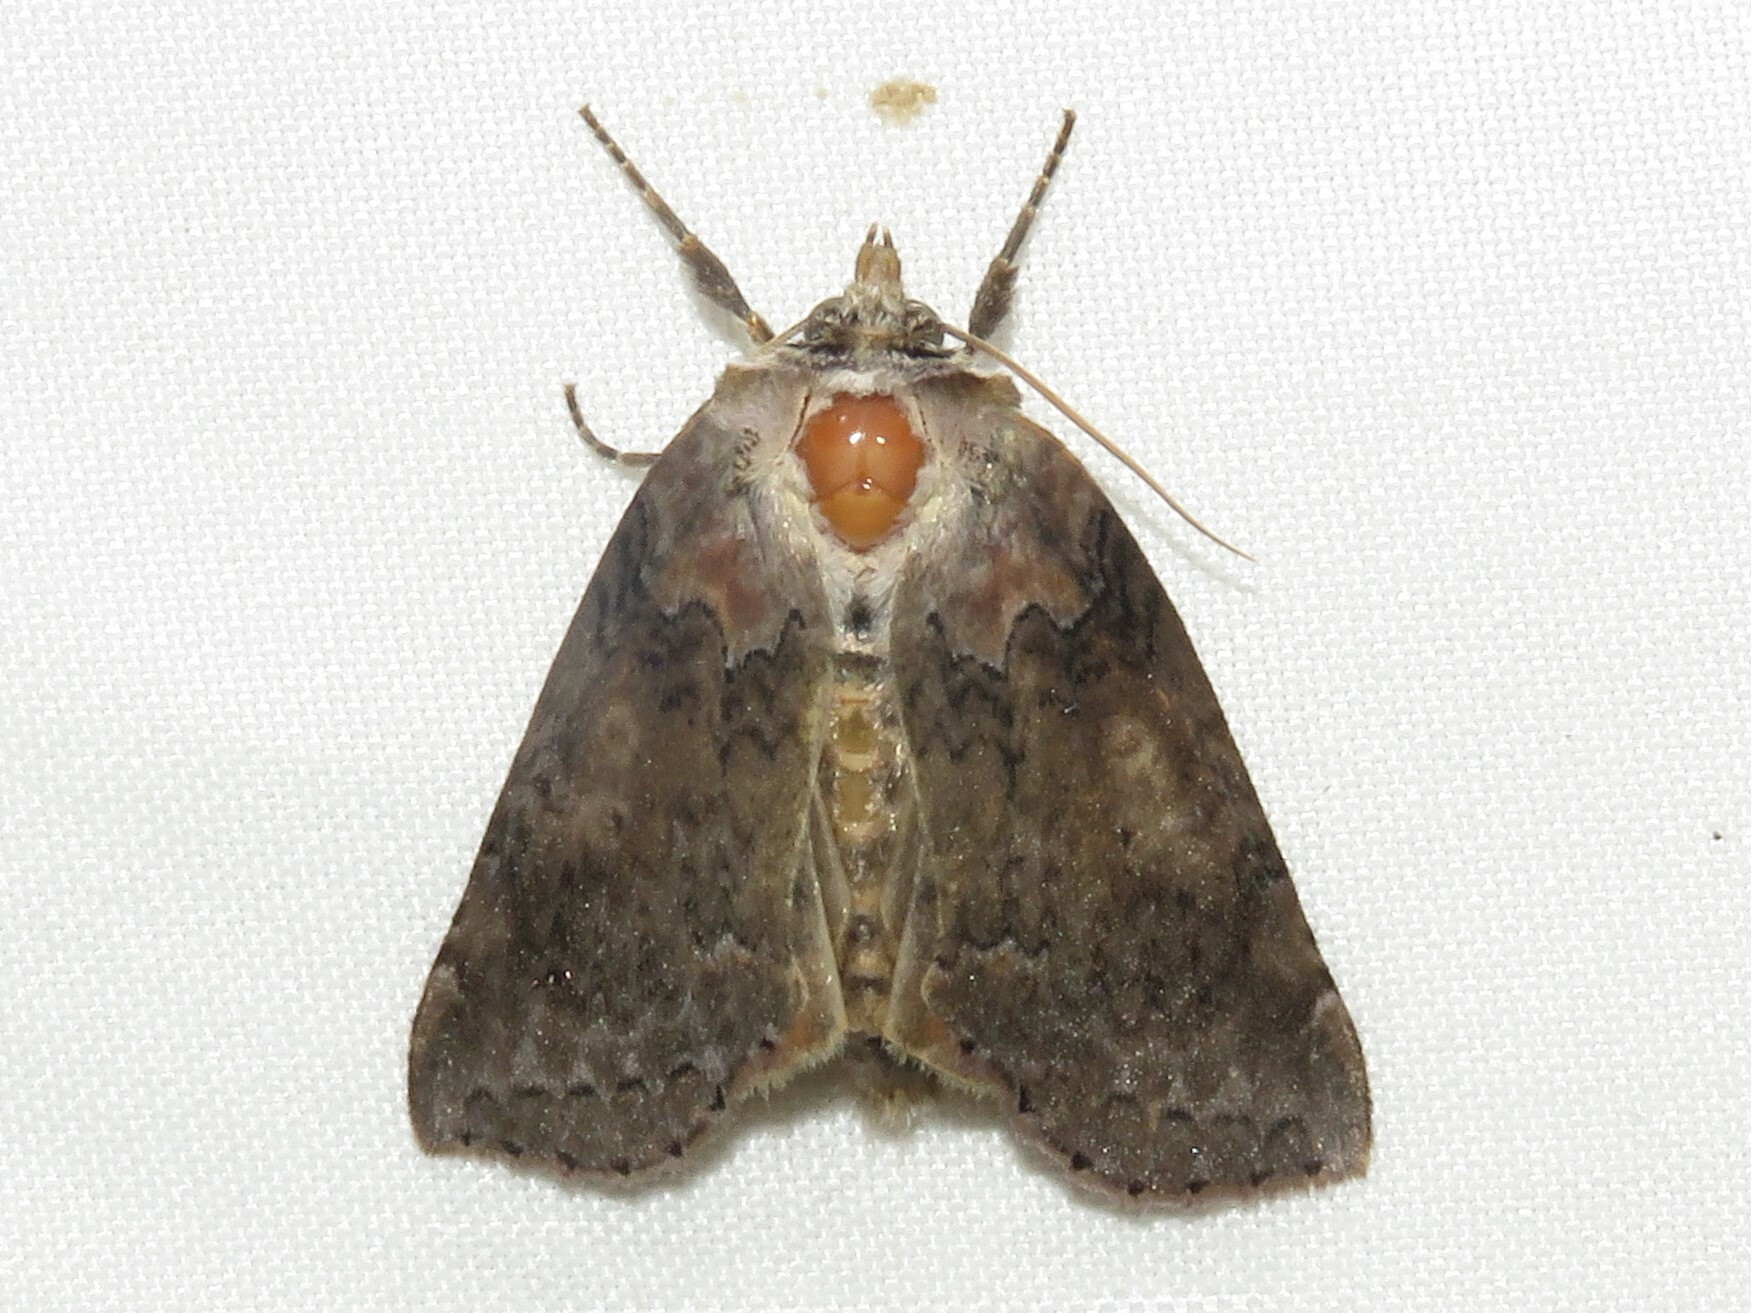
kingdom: Animalia
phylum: Arthropoda
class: Insecta
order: Lepidoptera
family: Drepanidae
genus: Pseudothyatira
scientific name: Pseudothyatira cymatophoroides
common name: Tufted thyatirid moth
